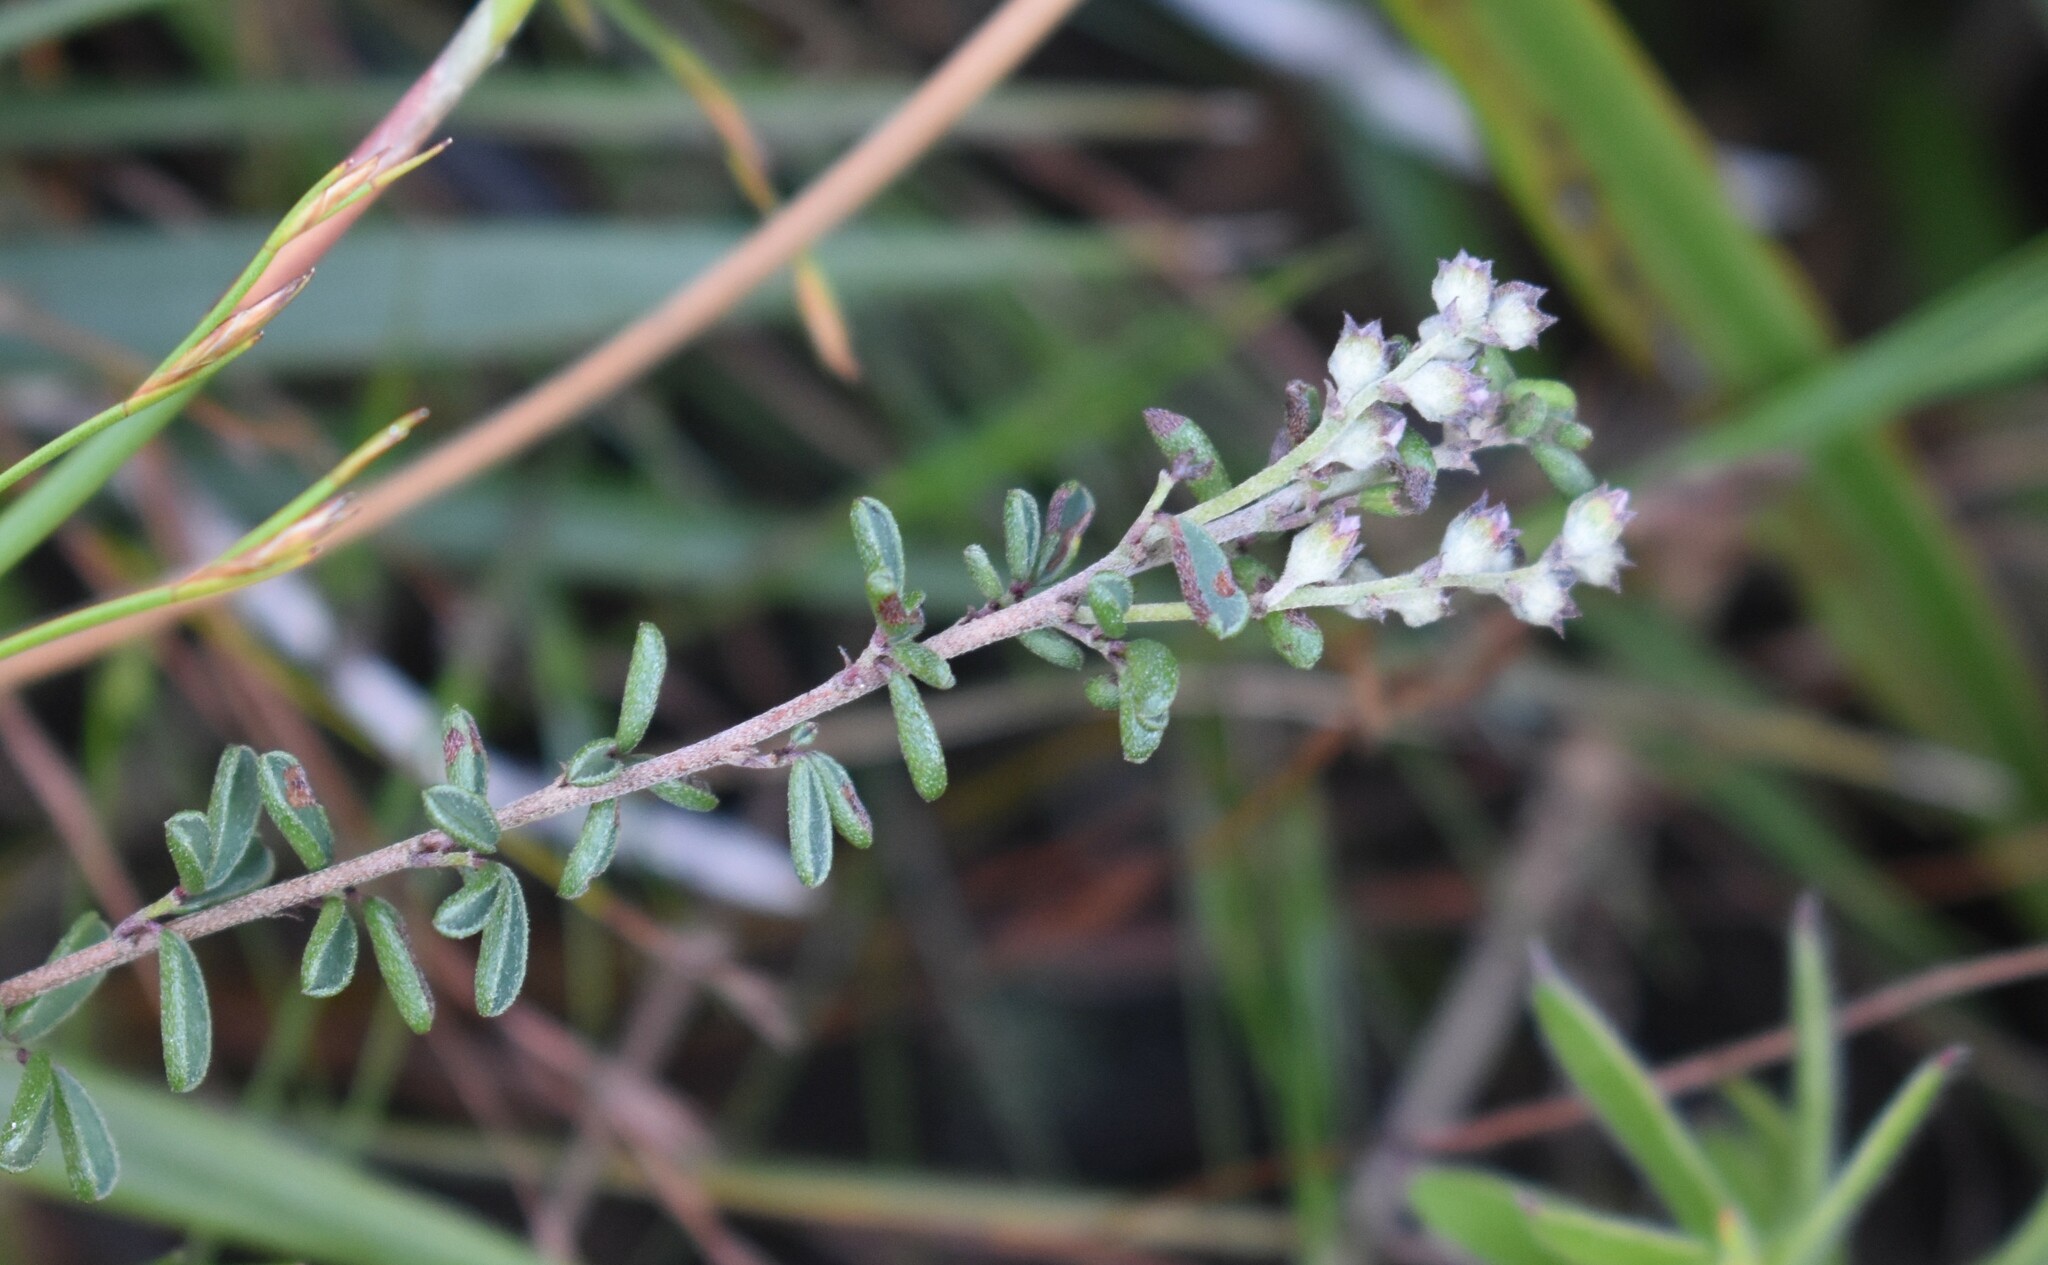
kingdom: Plantae
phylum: Tracheophyta
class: Magnoliopsida
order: Fabales
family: Fabaceae
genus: Indigofera
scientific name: Indigofera concava
